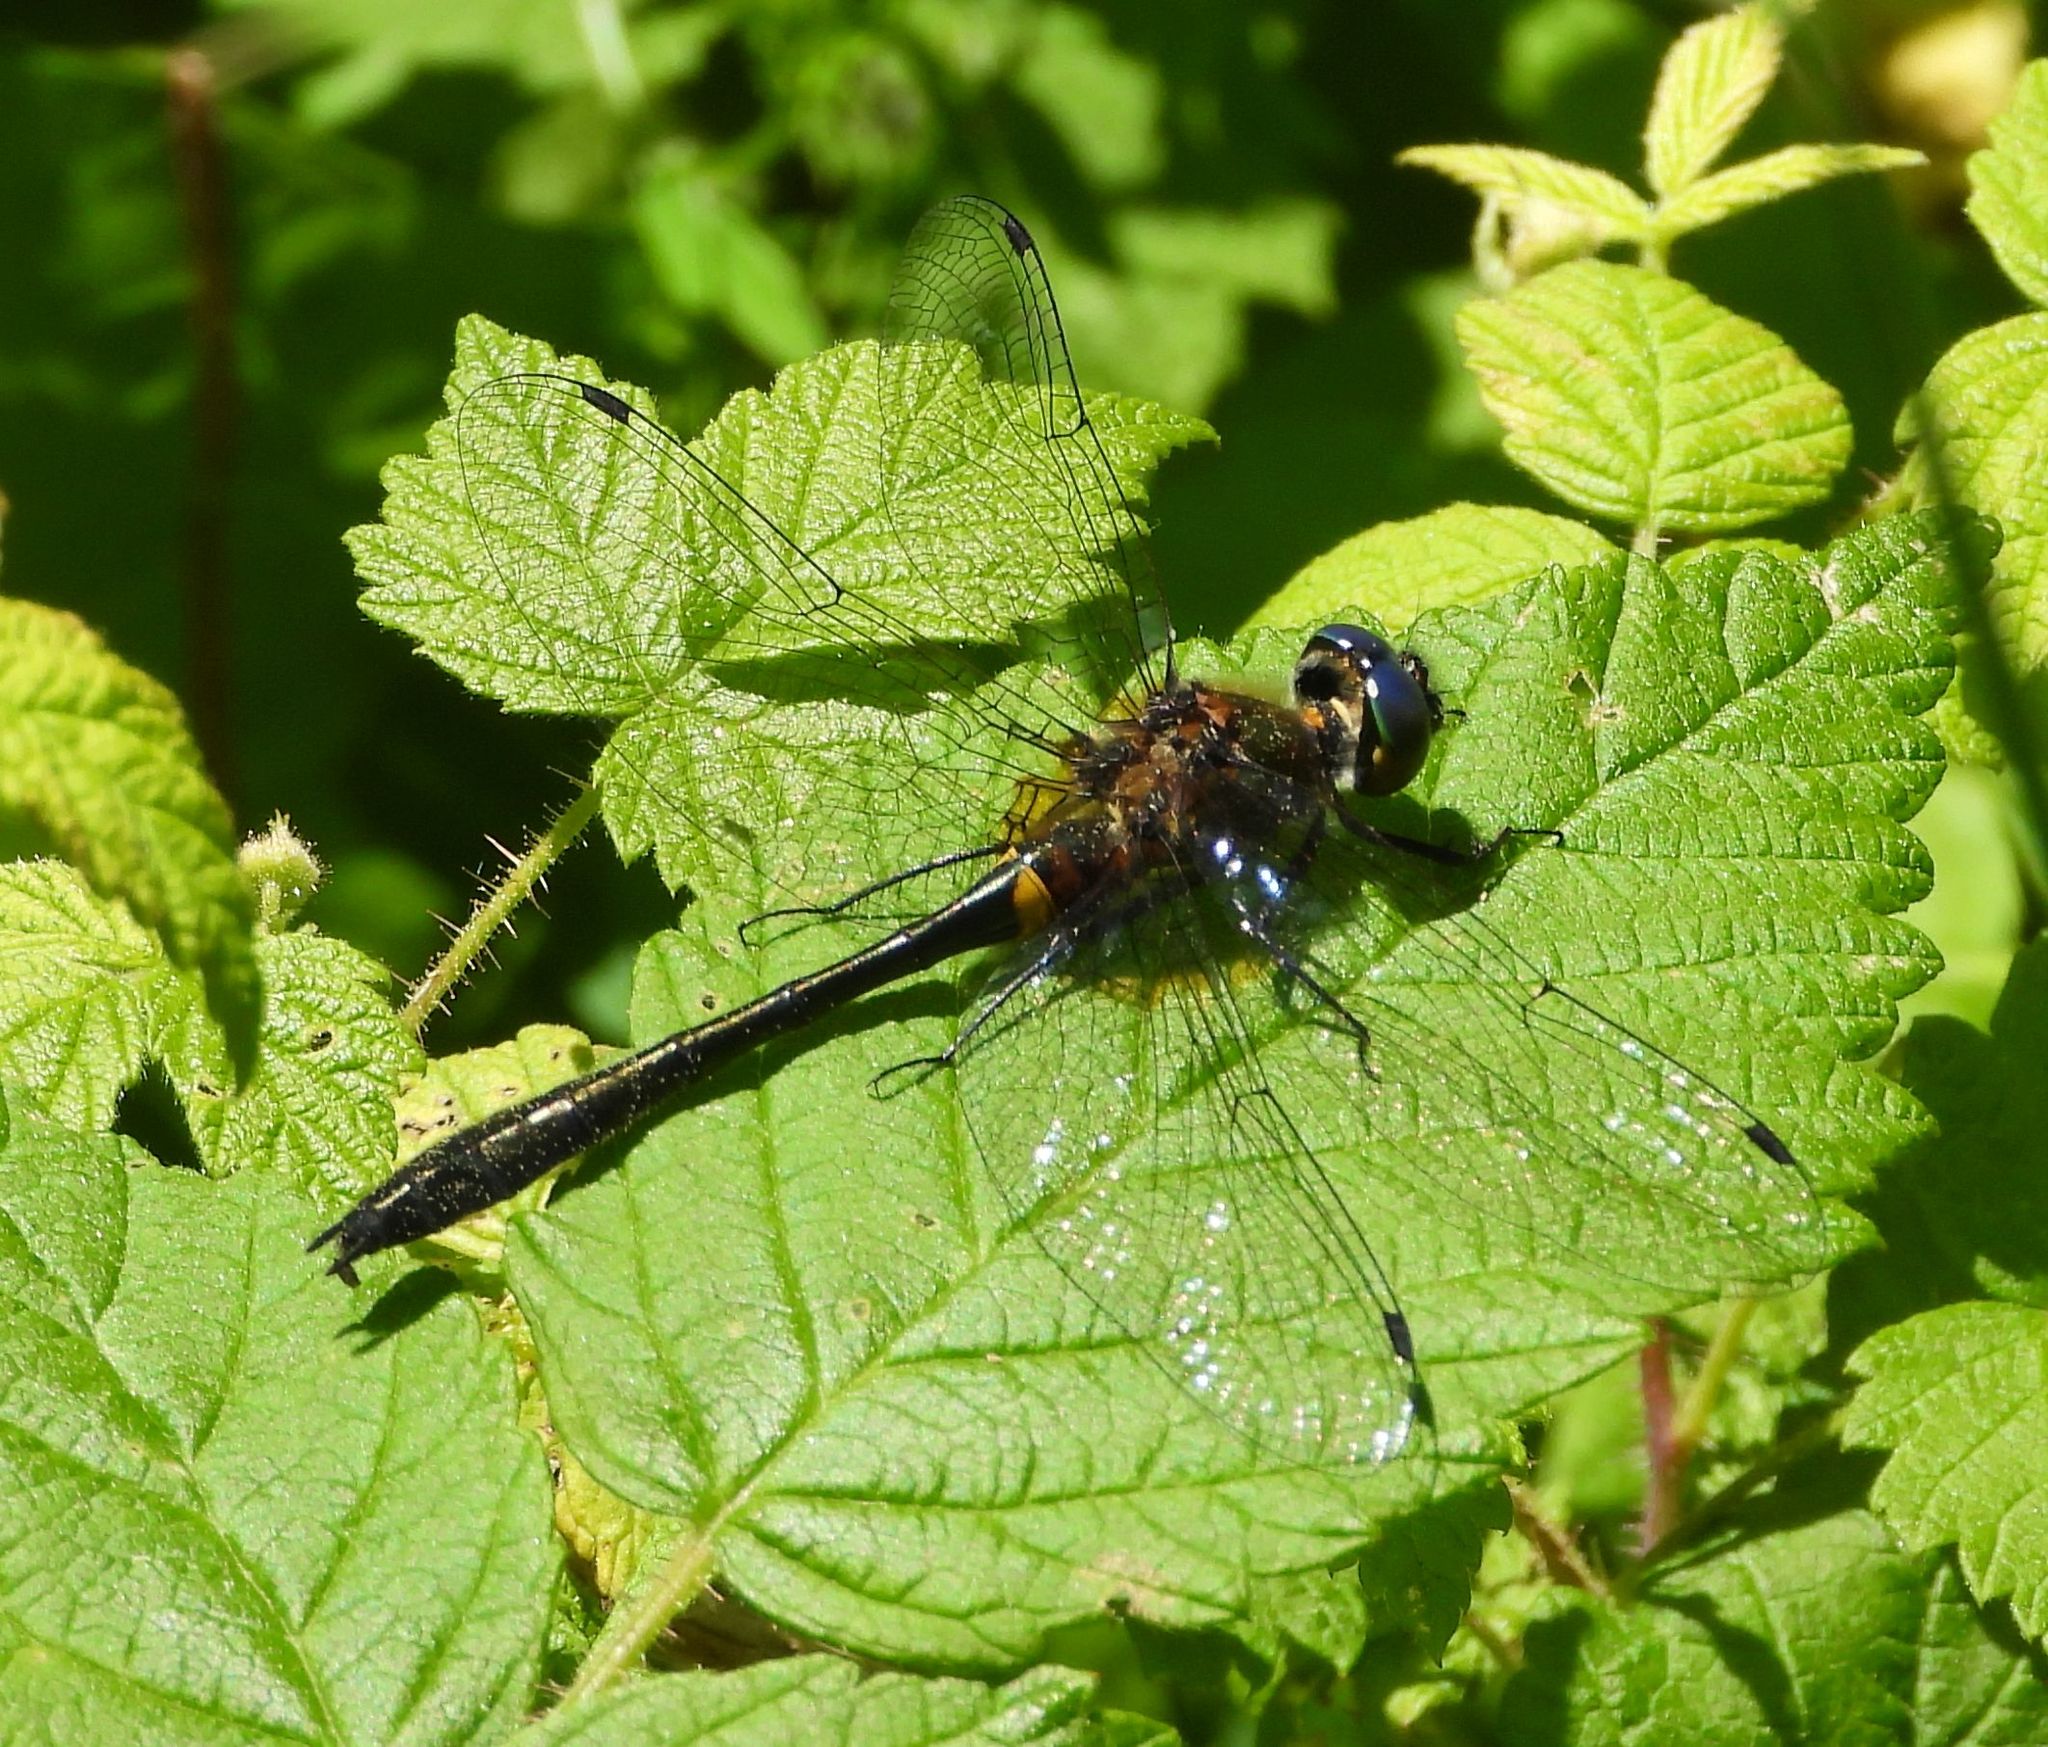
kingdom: Animalia
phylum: Arthropoda
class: Insecta
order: Odonata
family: Corduliidae
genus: Dorocordulia
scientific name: Dorocordulia libera
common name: Racket-tailed emerald
